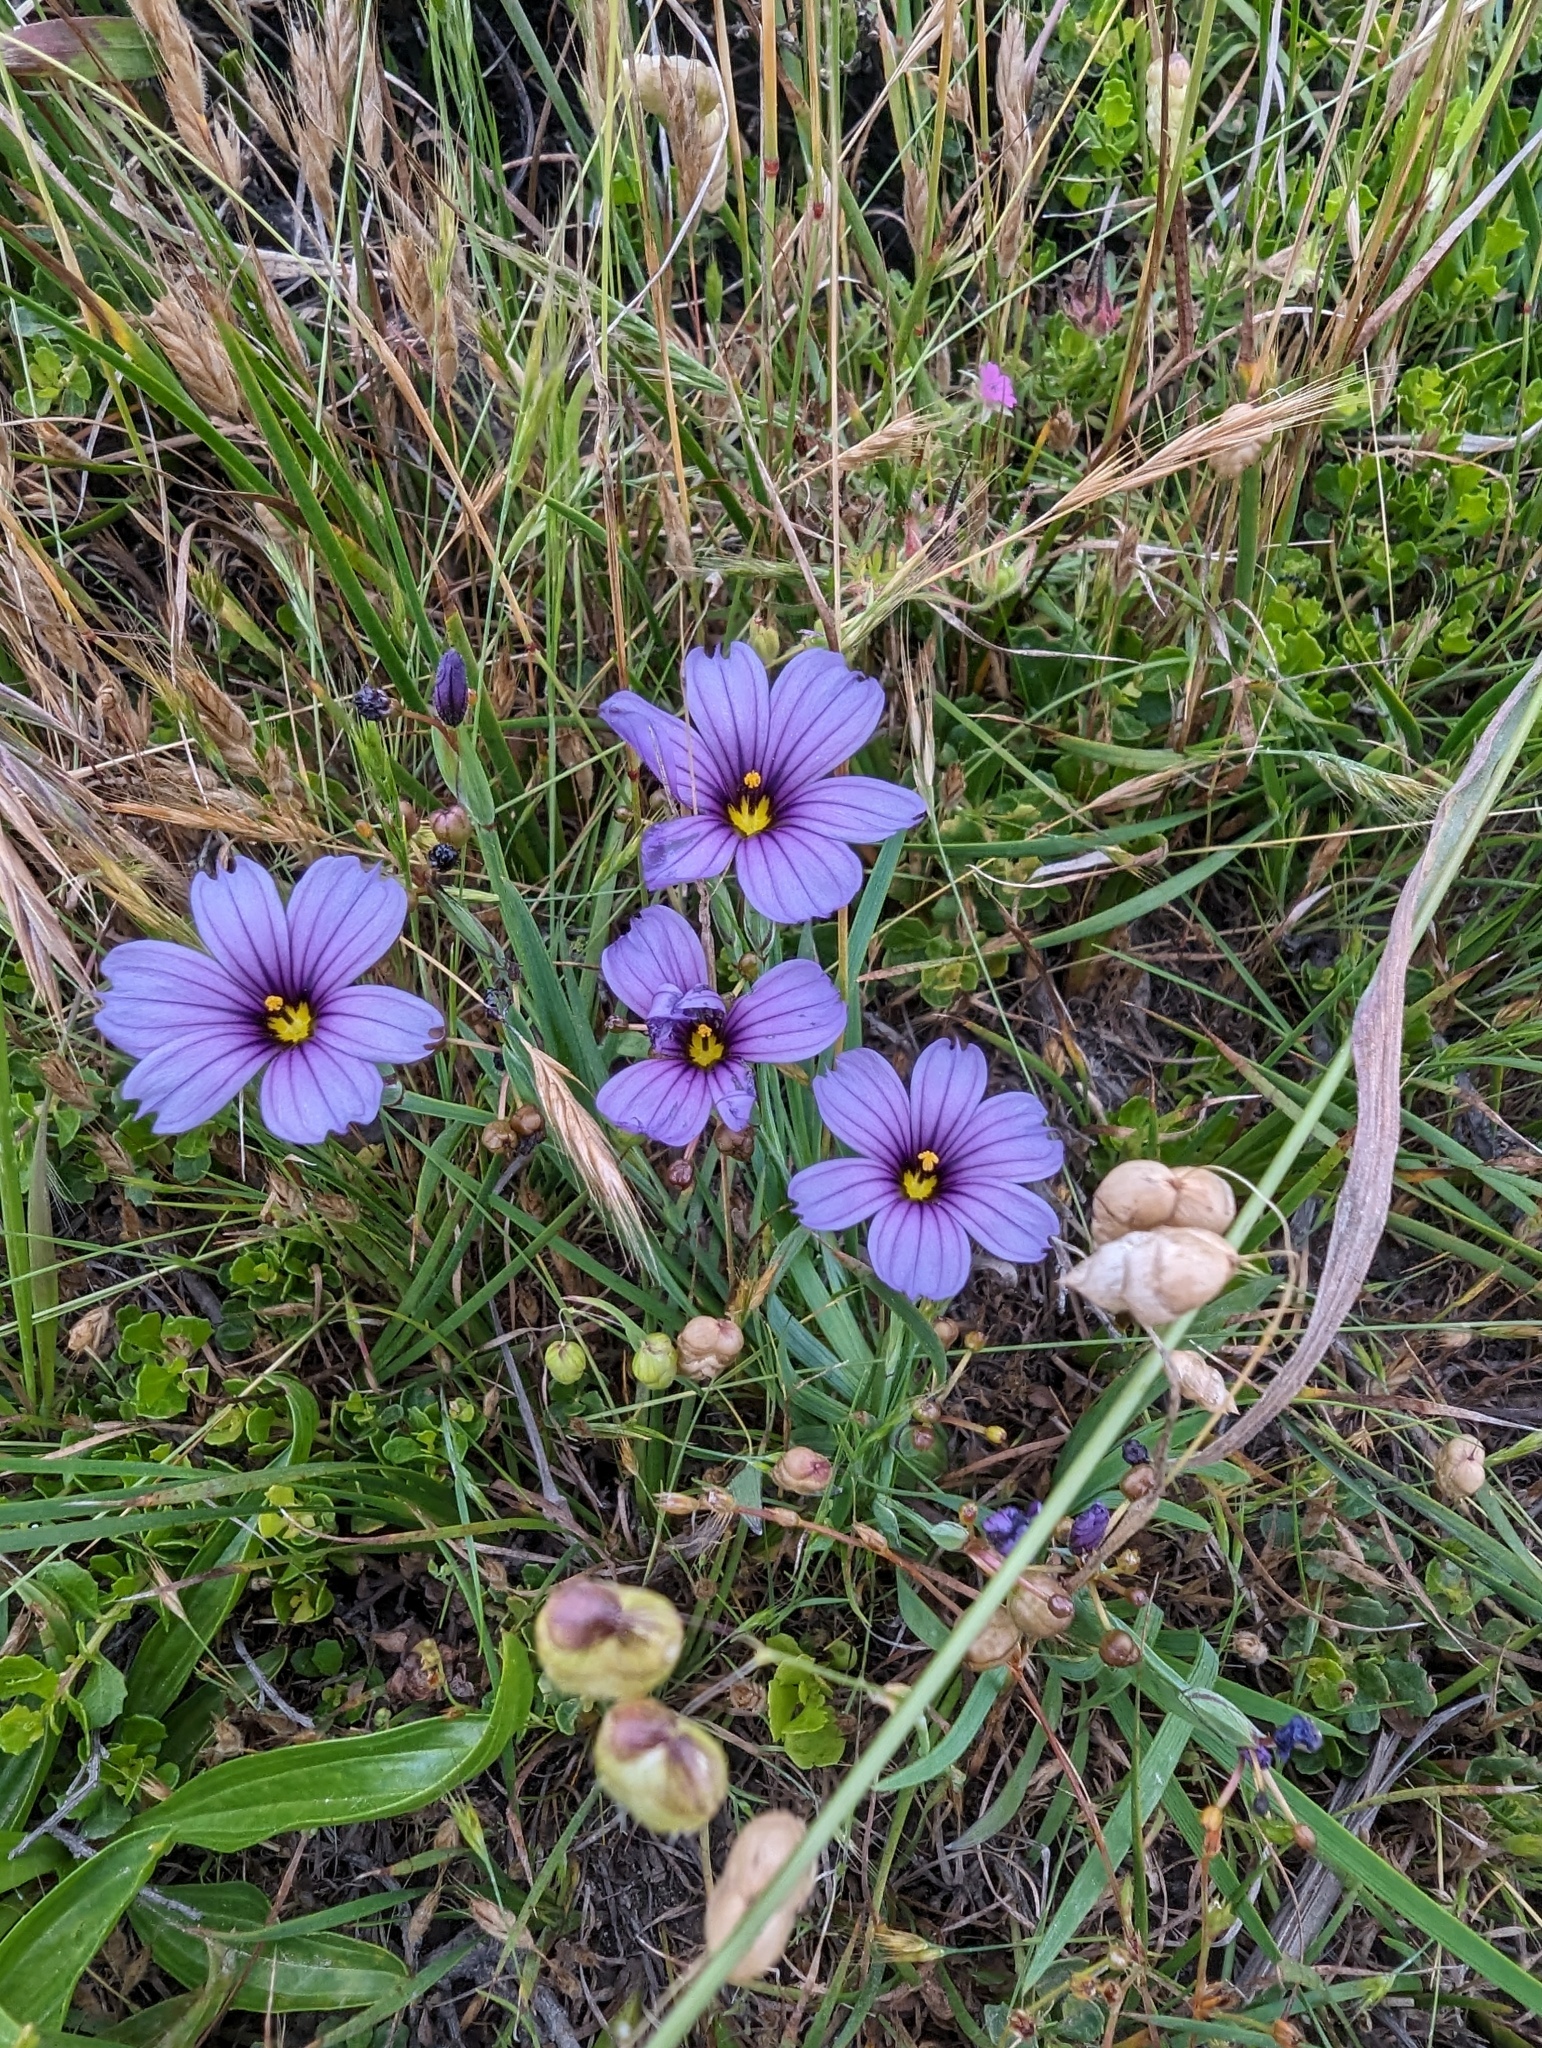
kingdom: Plantae
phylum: Tracheophyta
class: Liliopsida
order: Asparagales
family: Iridaceae
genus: Sisyrinchium
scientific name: Sisyrinchium bellum
